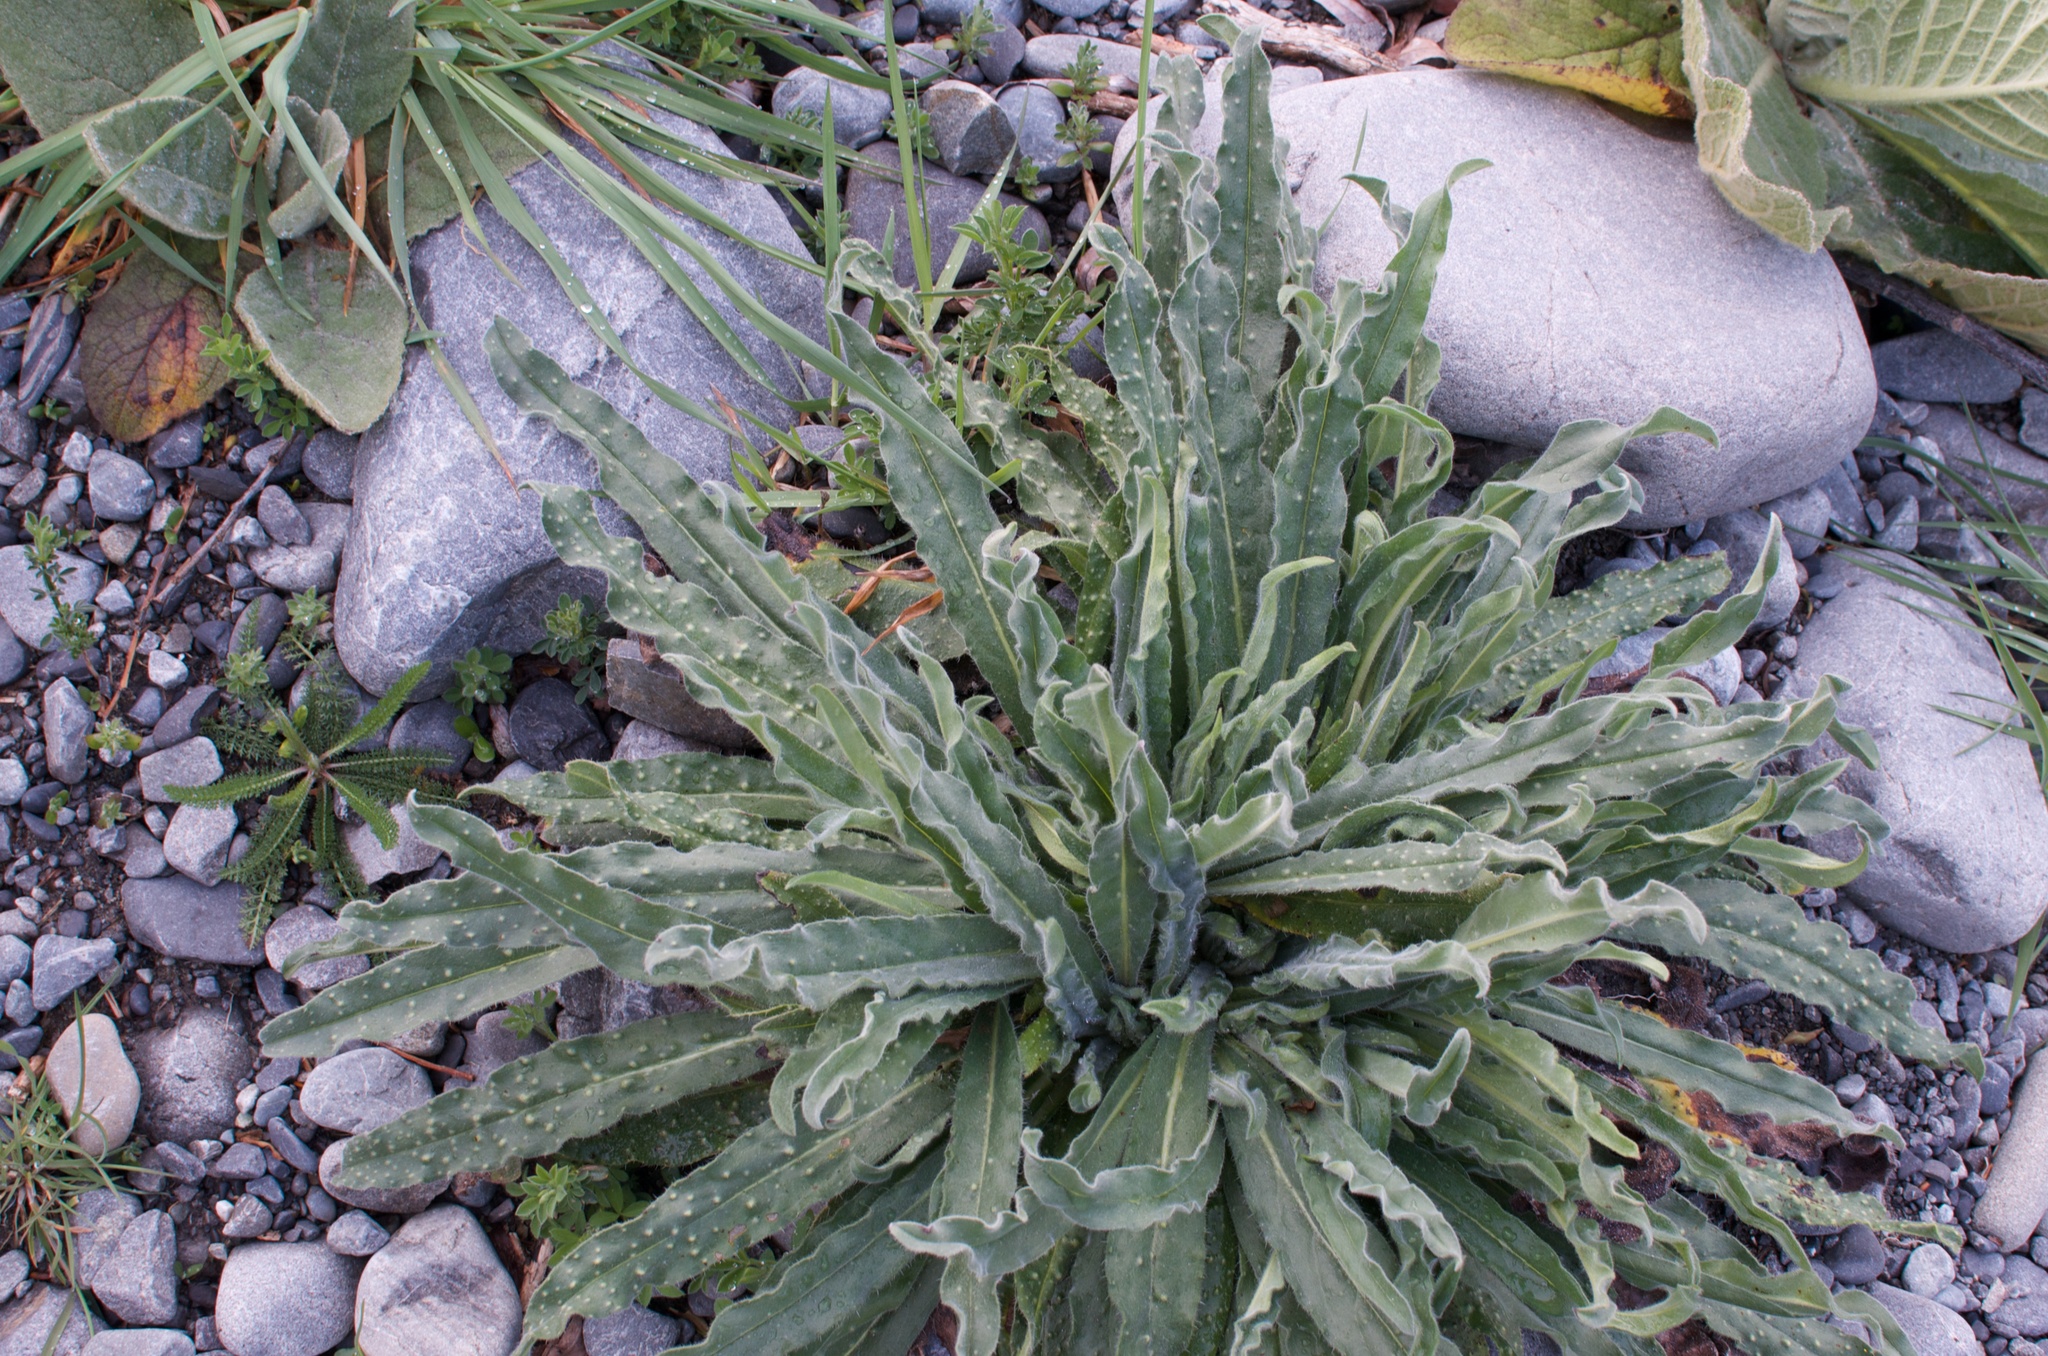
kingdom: Plantae
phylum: Tracheophyta
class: Magnoliopsida
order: Boraginales
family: Boraginaceae
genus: Echium
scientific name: Echium vulgare
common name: Common viper's bugloss
